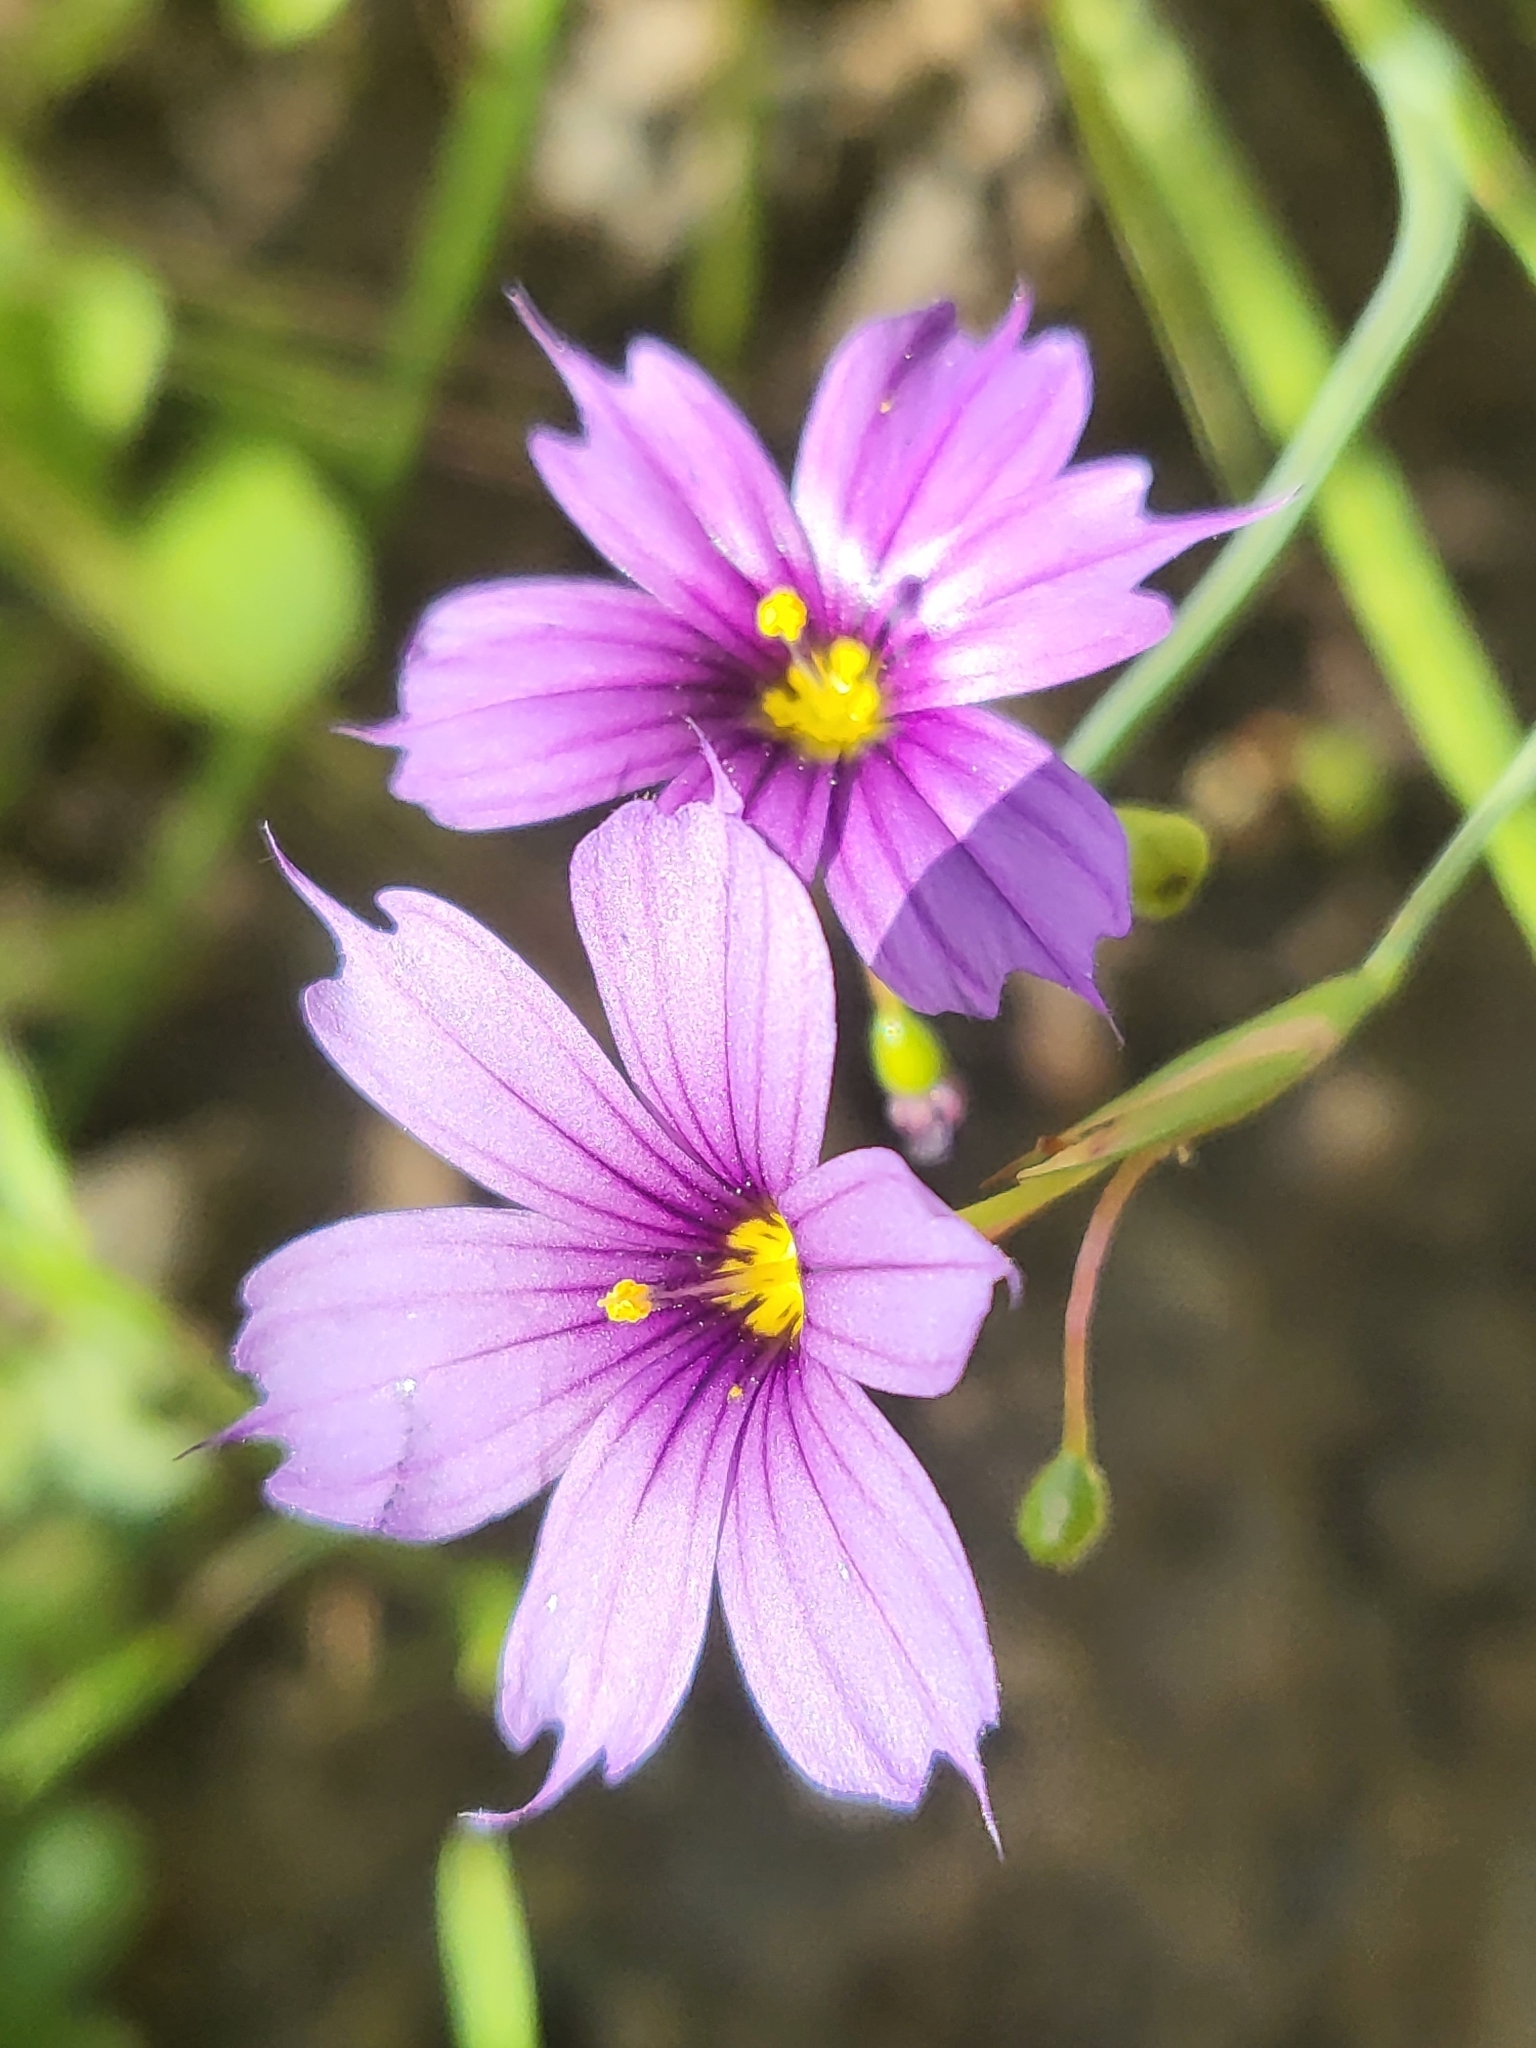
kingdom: Plantae
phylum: Tracheophyta
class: Liliopsida
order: Asparagales
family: Iridaceae
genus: Sisyrinchium
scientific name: Sisyrinchium bellum
